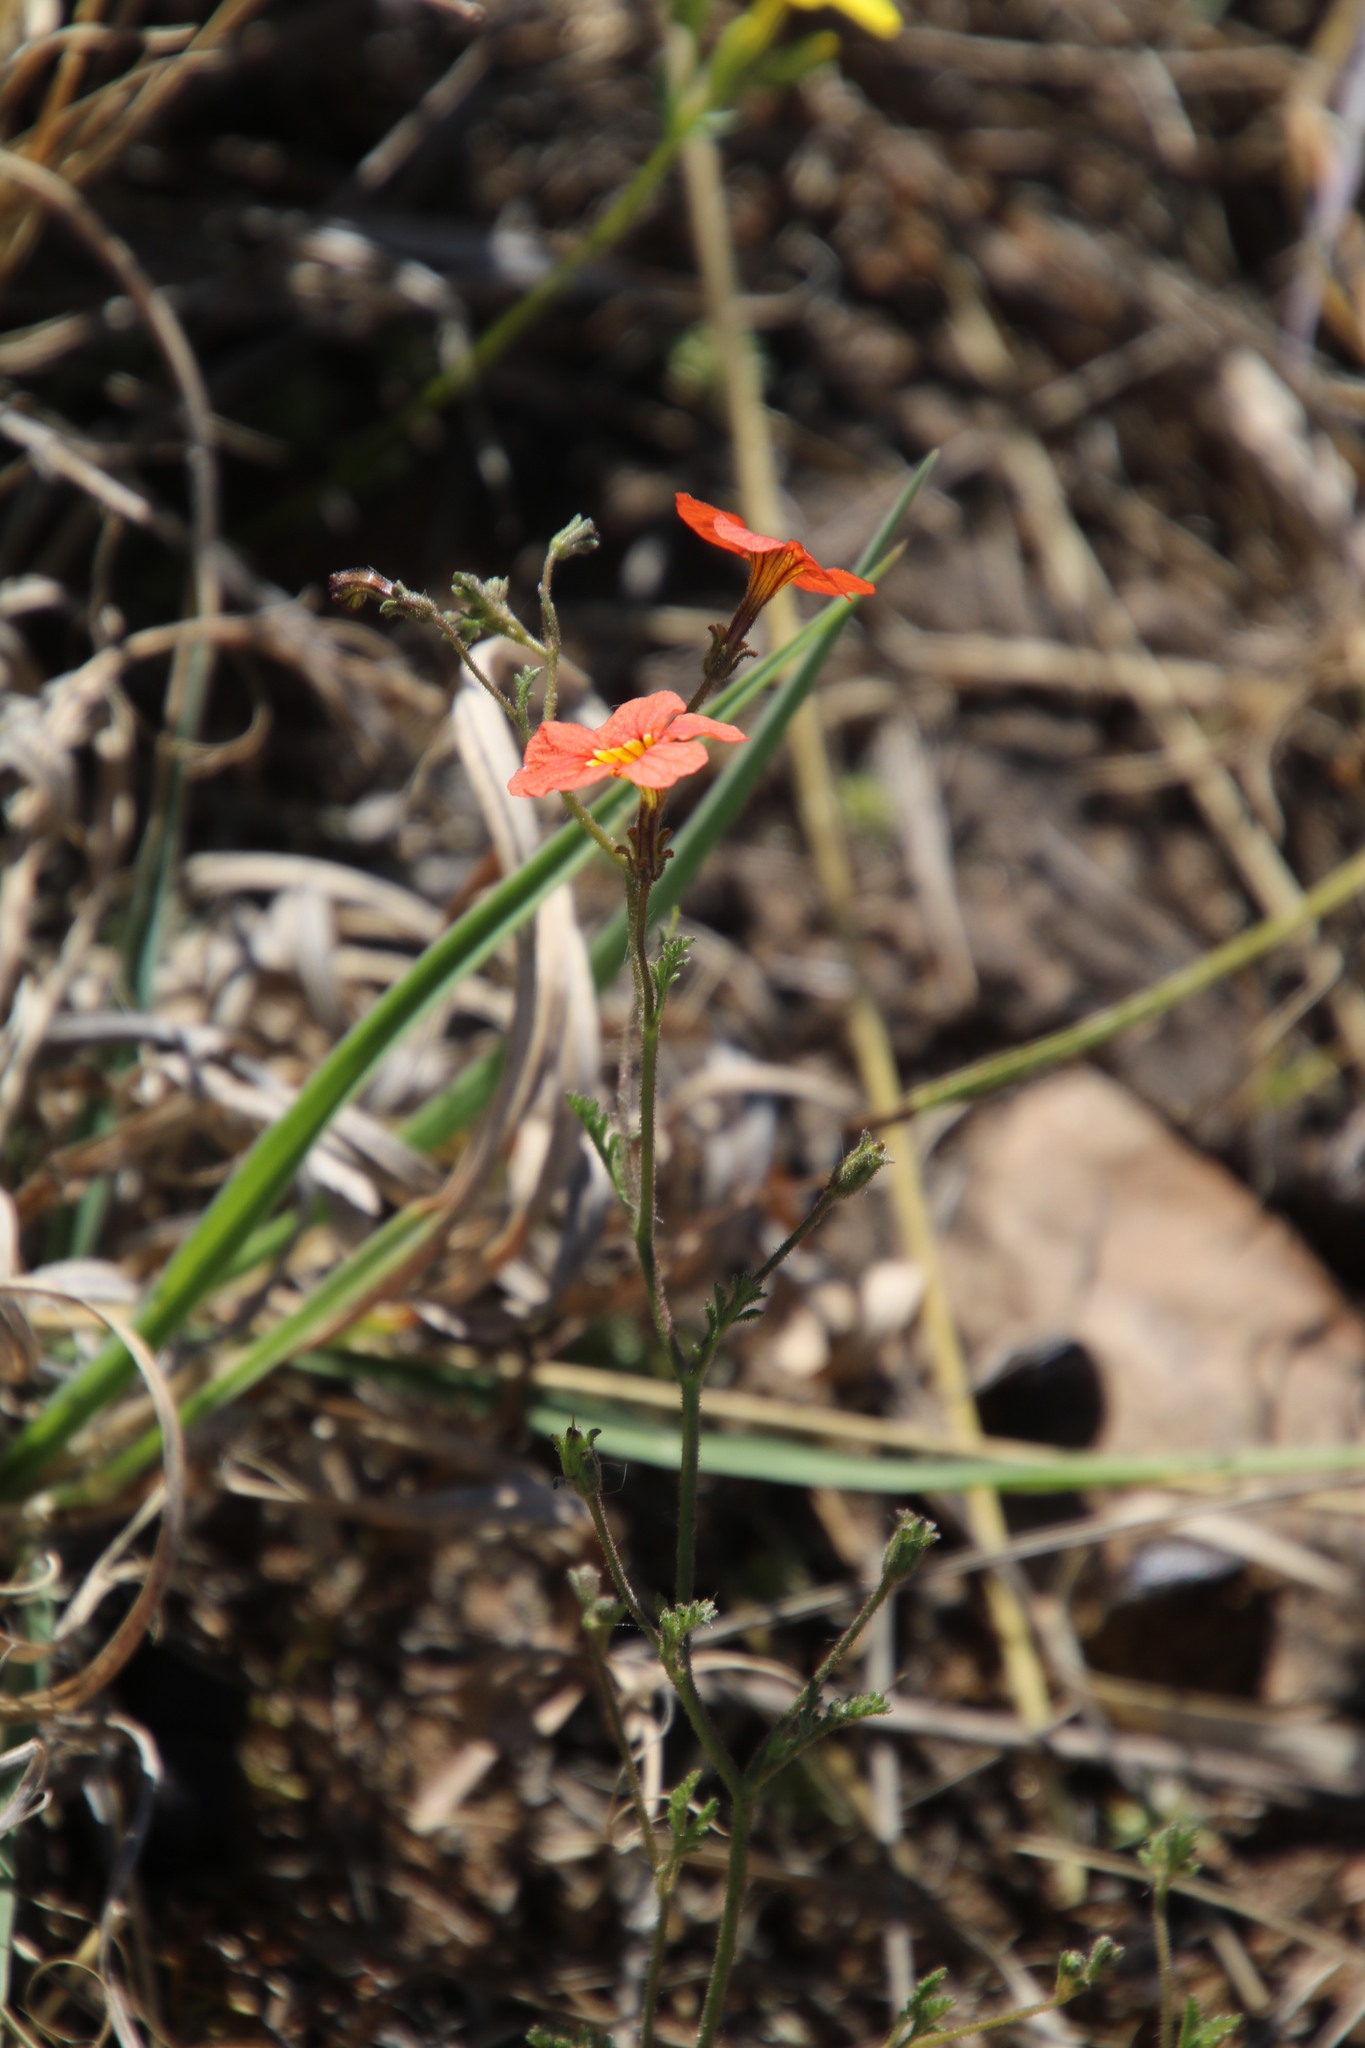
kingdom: Plantae
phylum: Tracheophyta
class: Magnoliopsida
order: Lamiales
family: Scrophulariaceae
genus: Jamesbrittenia
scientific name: Jamesbrittenia aurantiaca
